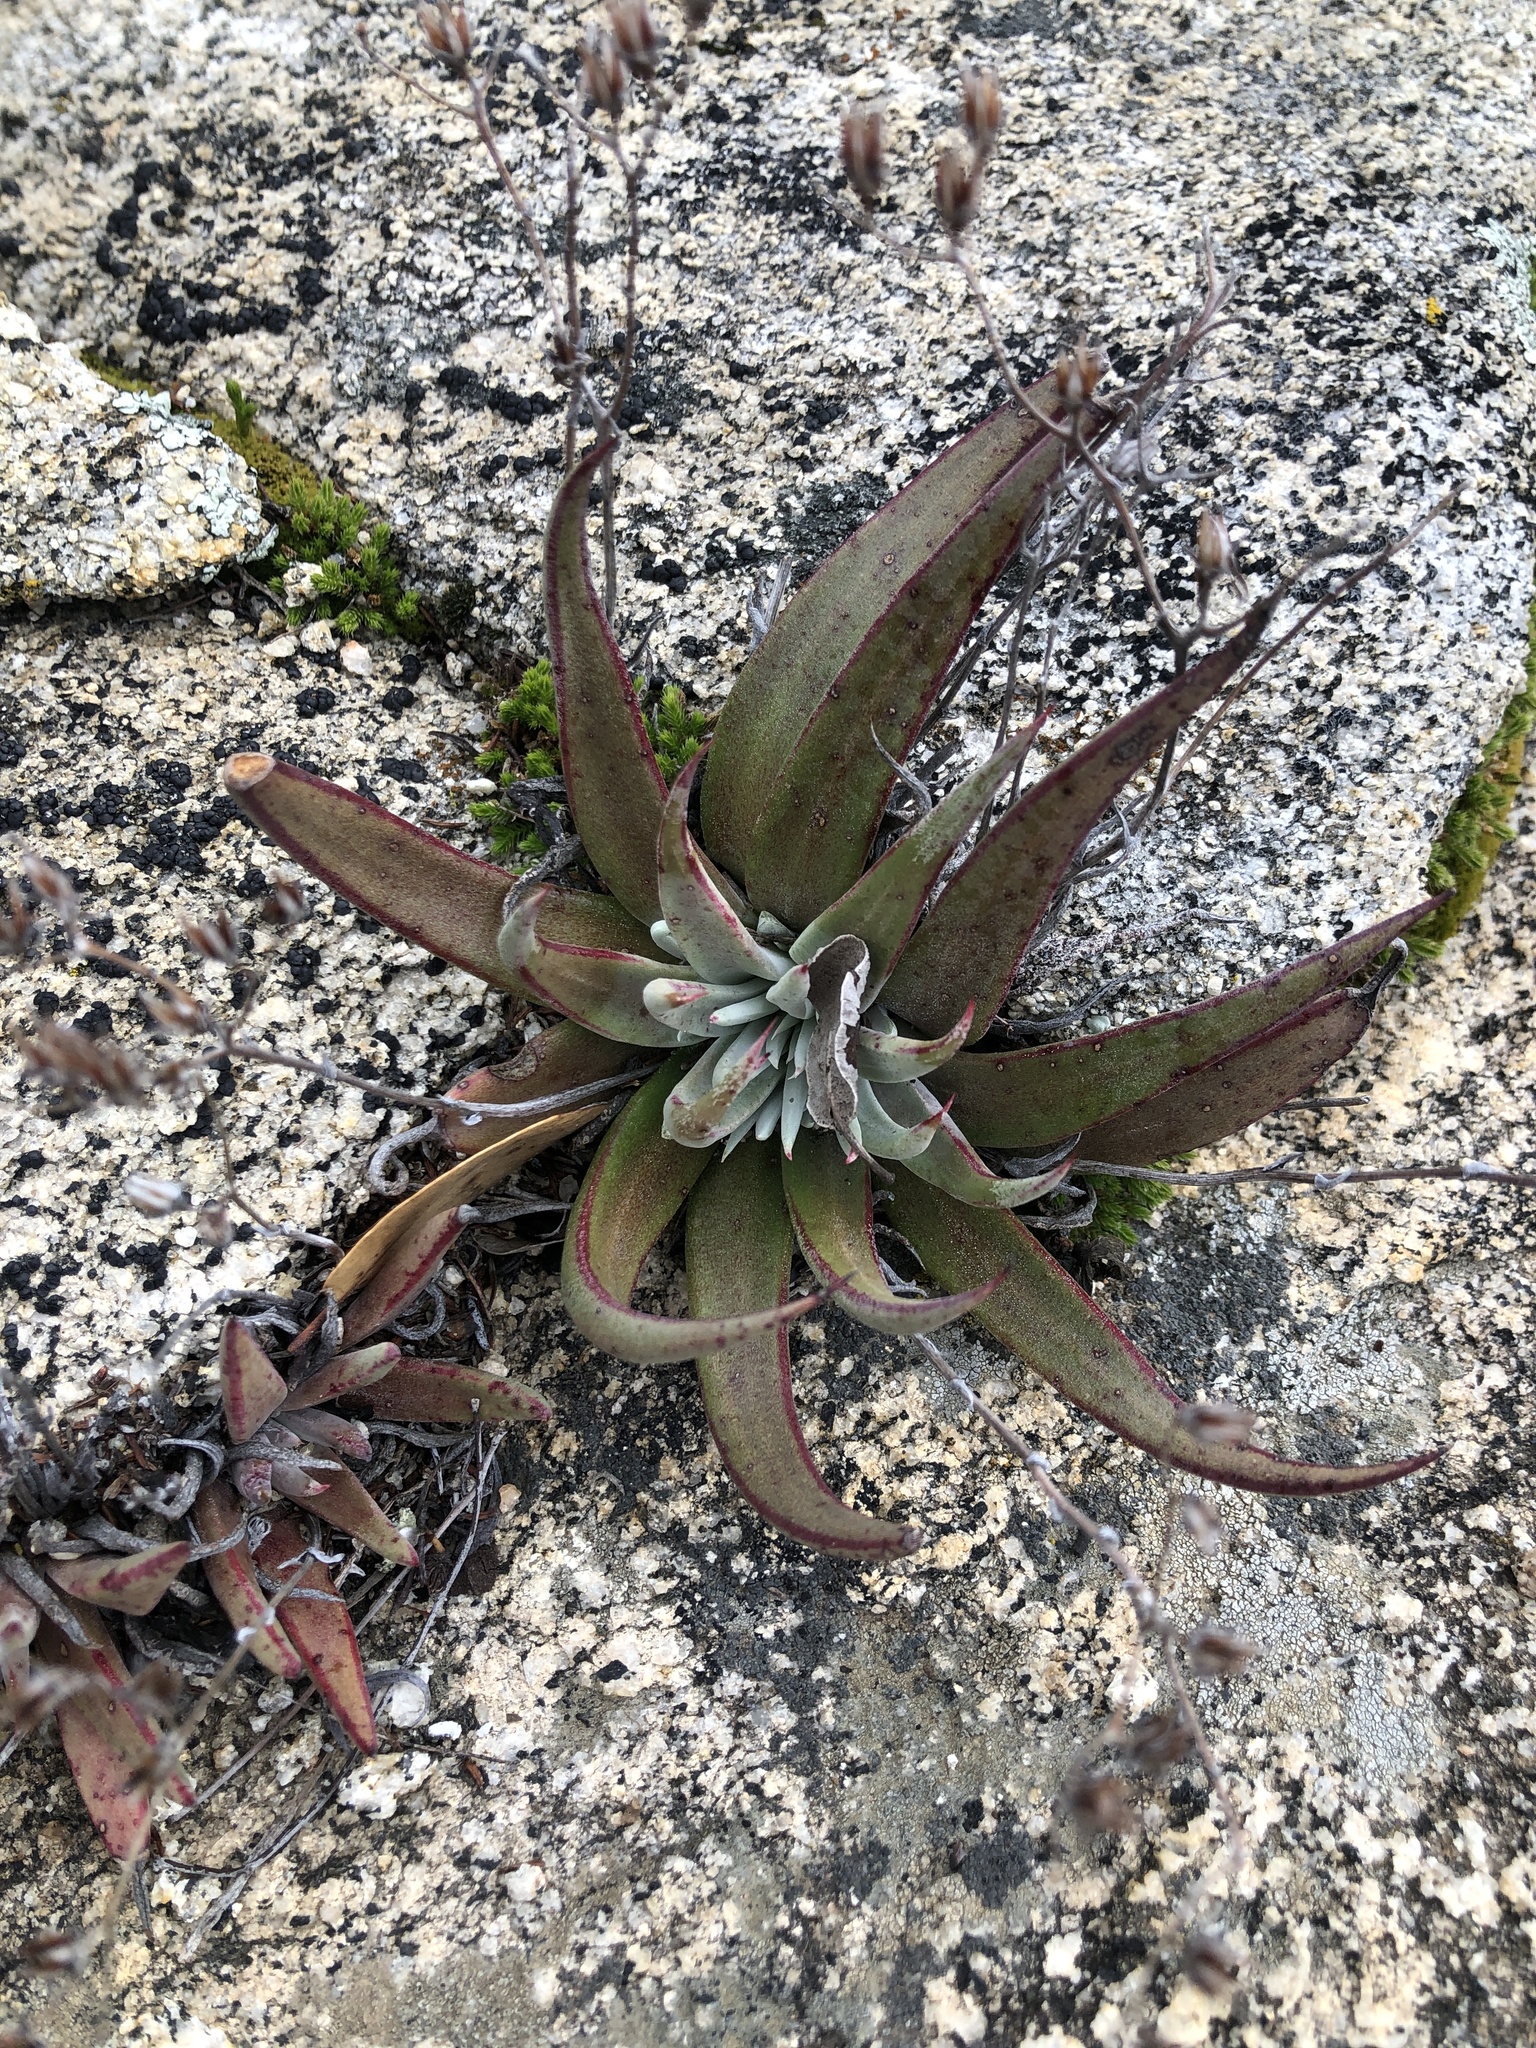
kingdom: Plantae
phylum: Tracheophyta
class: Magnoliopsida
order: Saxifragales
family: Crassulaceae
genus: Dudleya
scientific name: Dudleya abramsii
